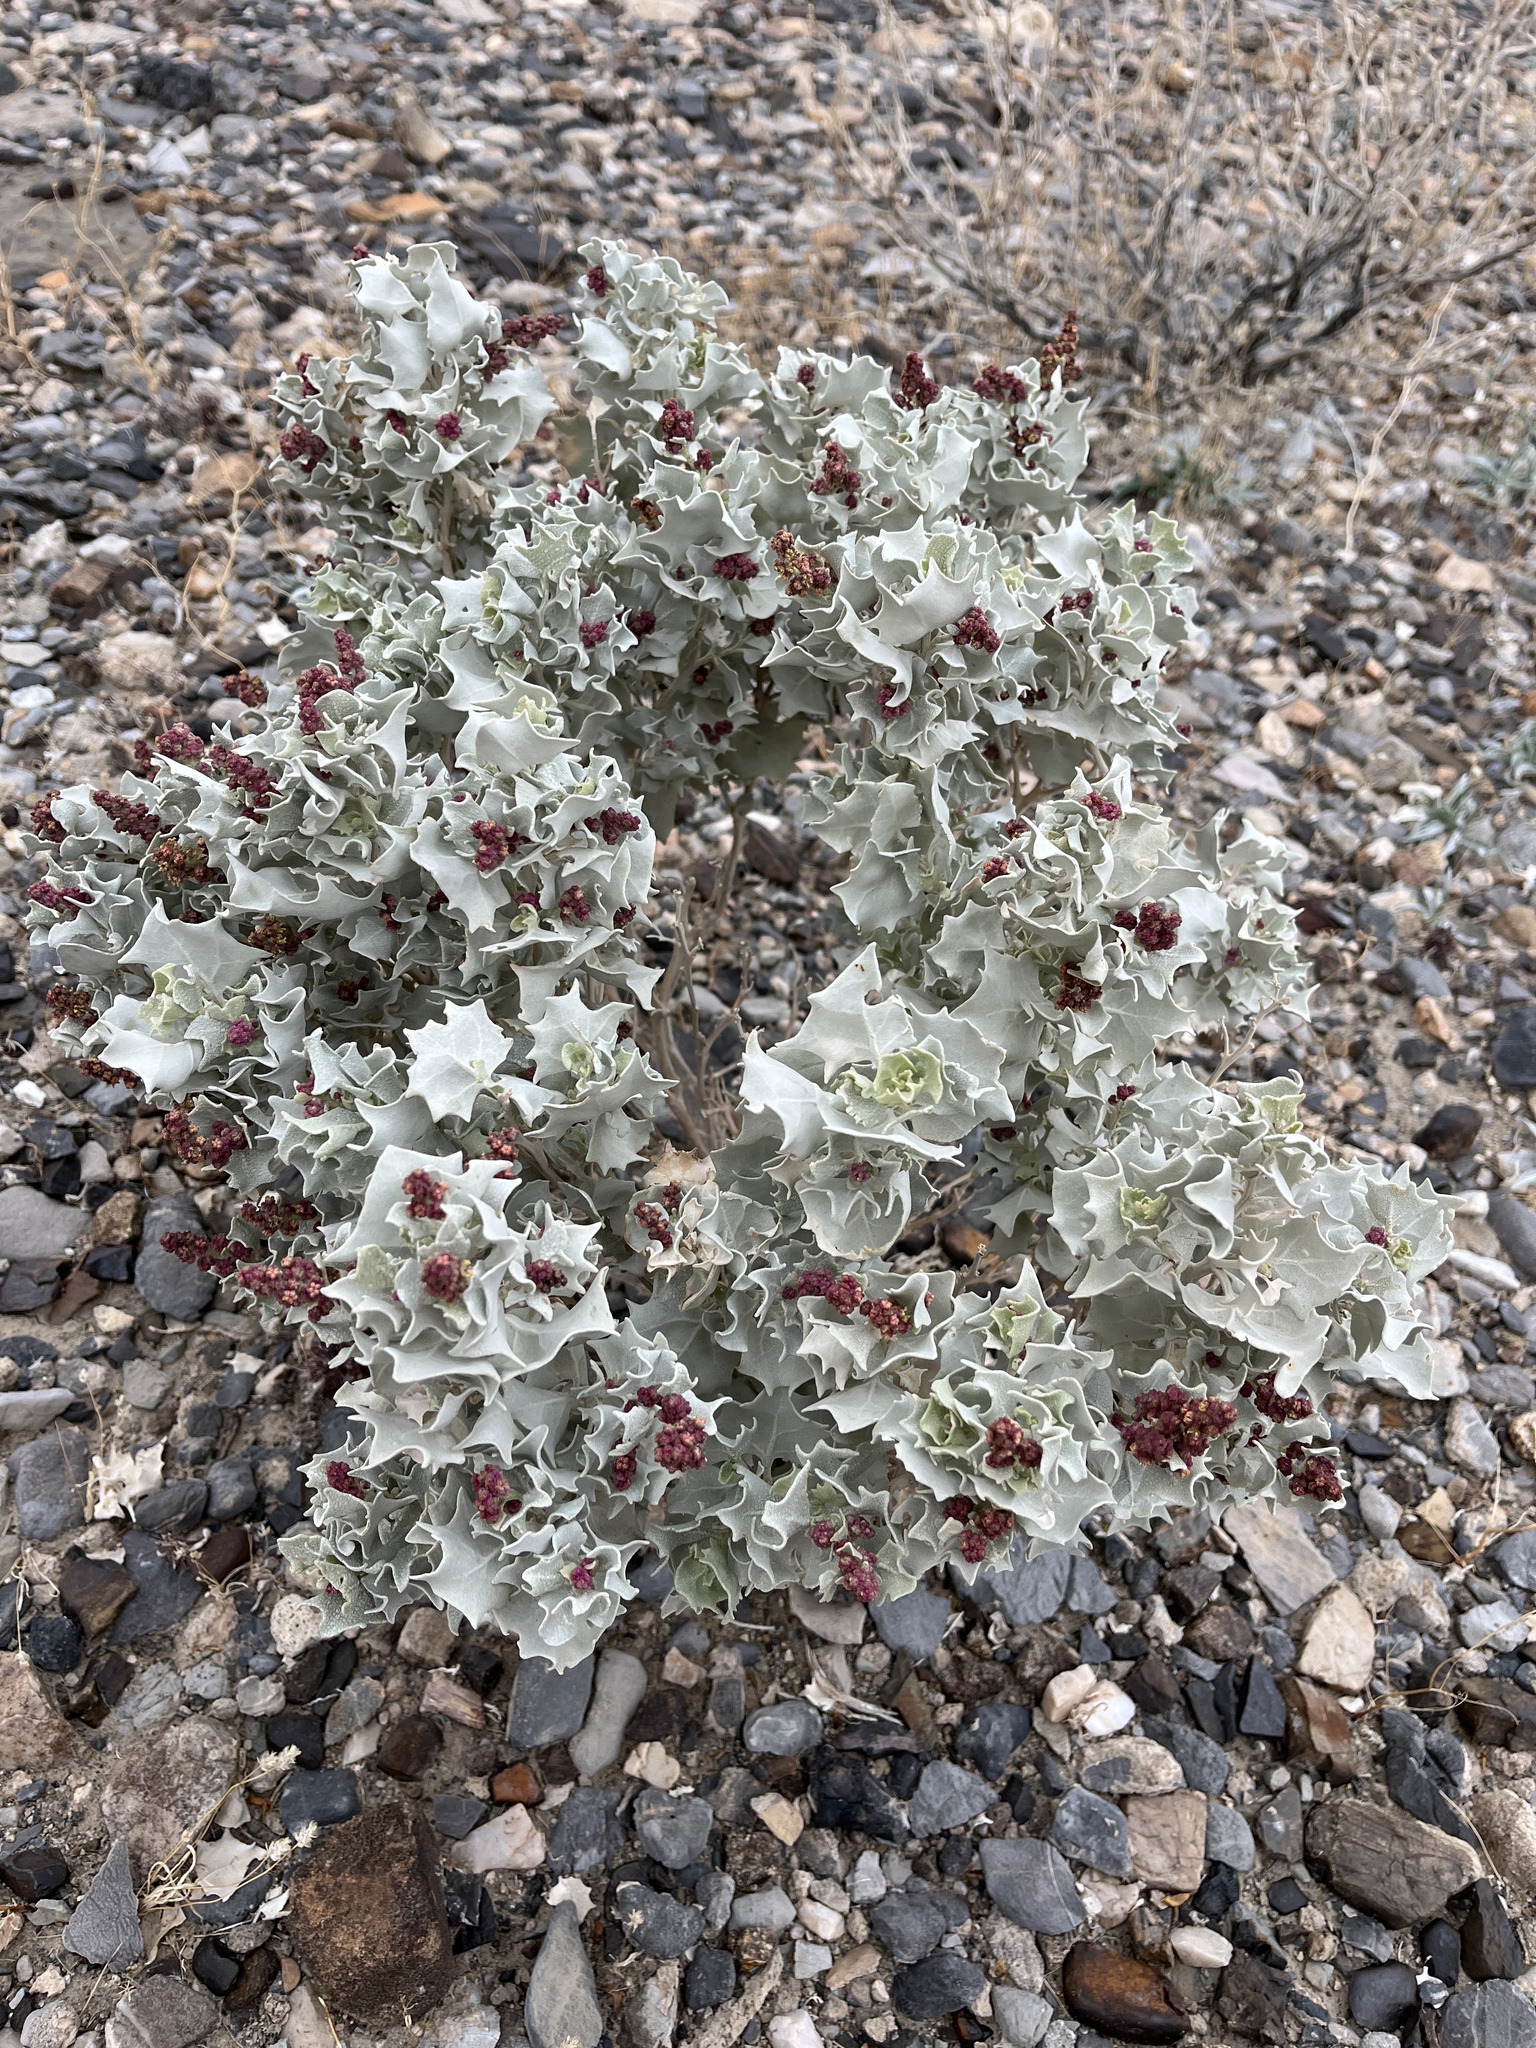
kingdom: Plantae
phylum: Tracheophyta
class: Magnoliopsida
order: Caryophyllales
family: Amaranthaceae
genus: Atriplex
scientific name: Atriplex hymenelytra
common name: Desert-holly
